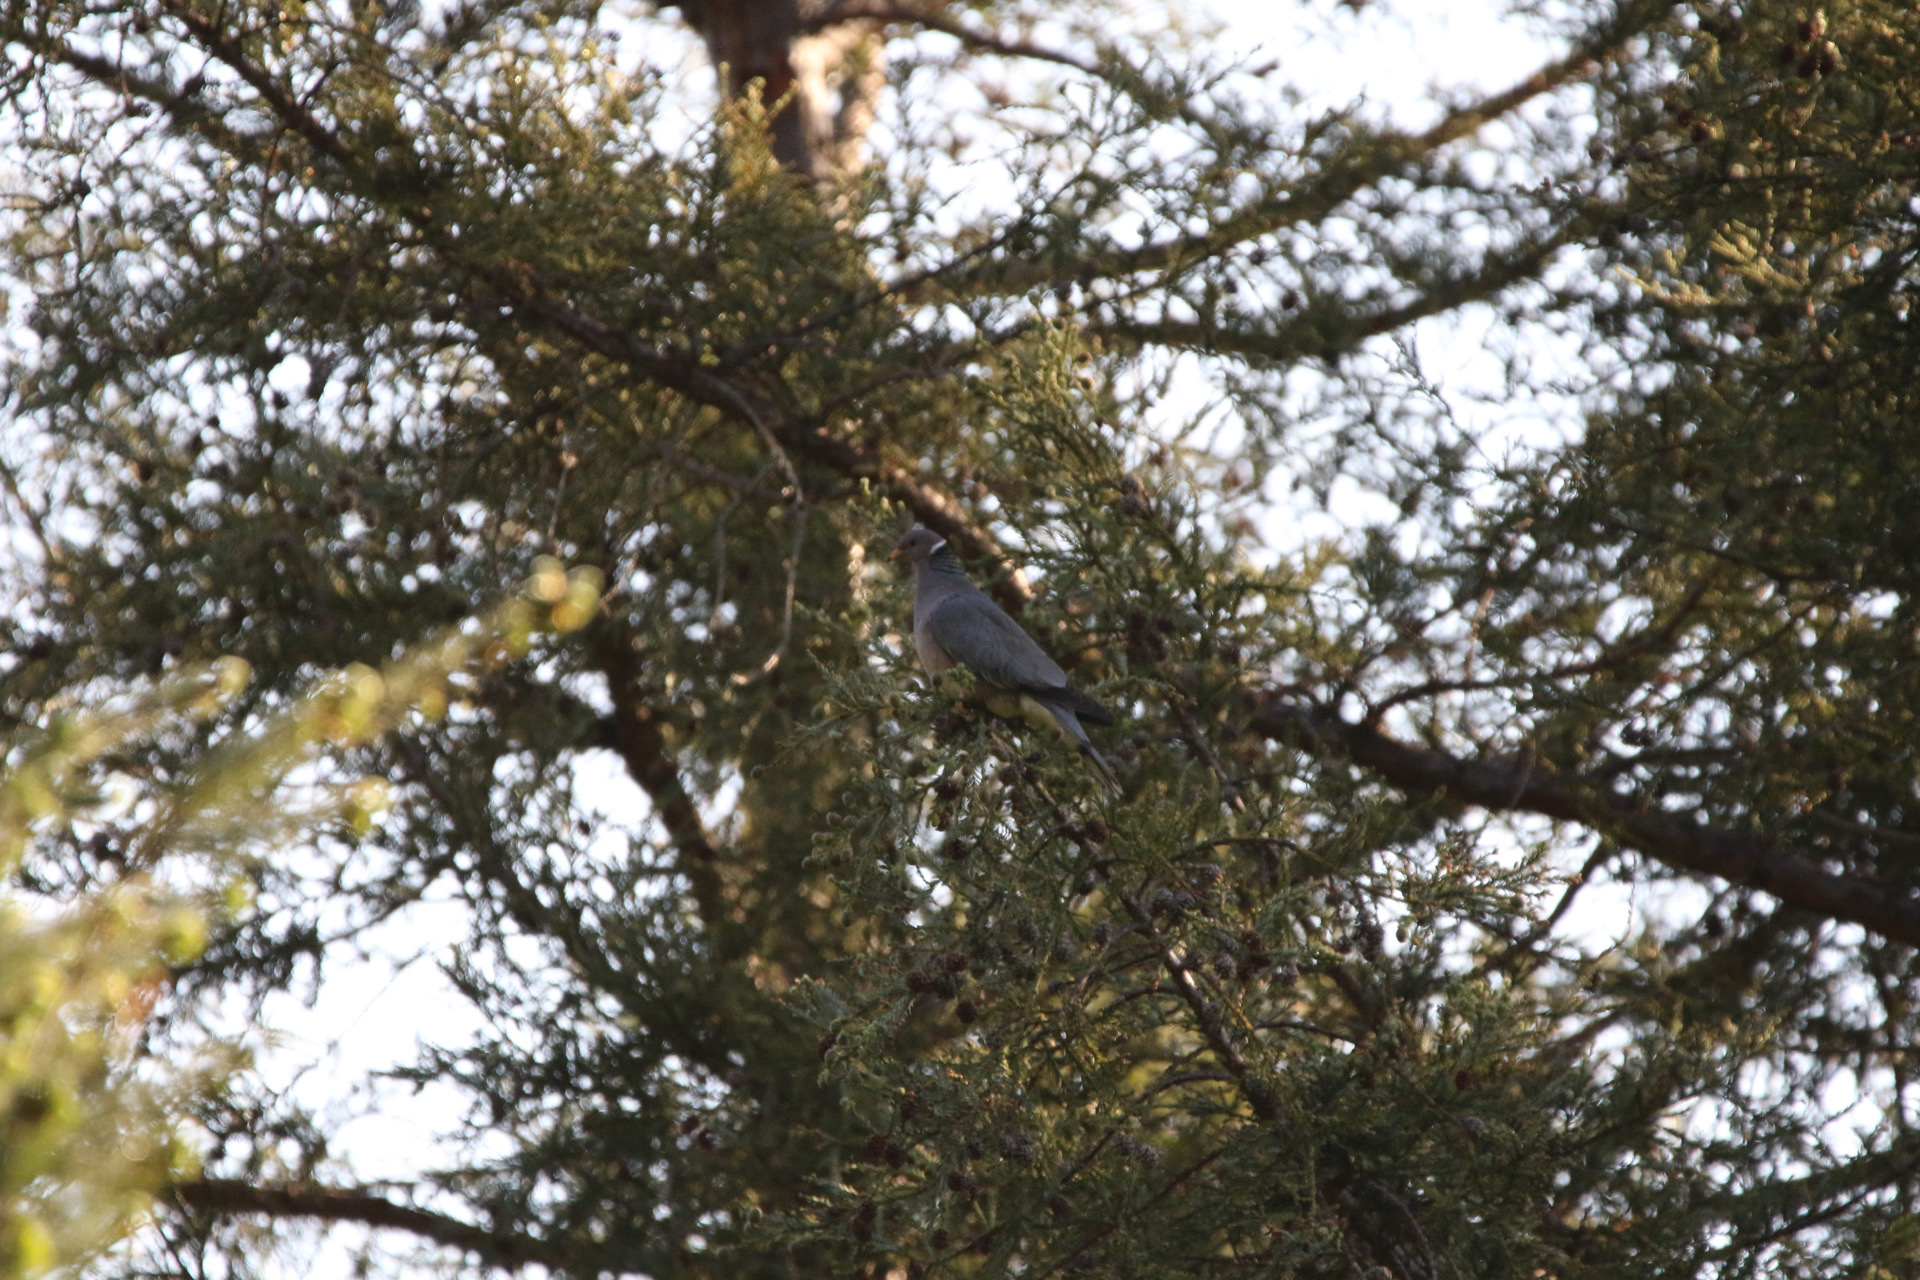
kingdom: Animalia
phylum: Chordata
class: Aves
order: Columbiformes
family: Columbidae
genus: Patagioenas
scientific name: Patagioenas fasciata
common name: Band-tailed pigeon
